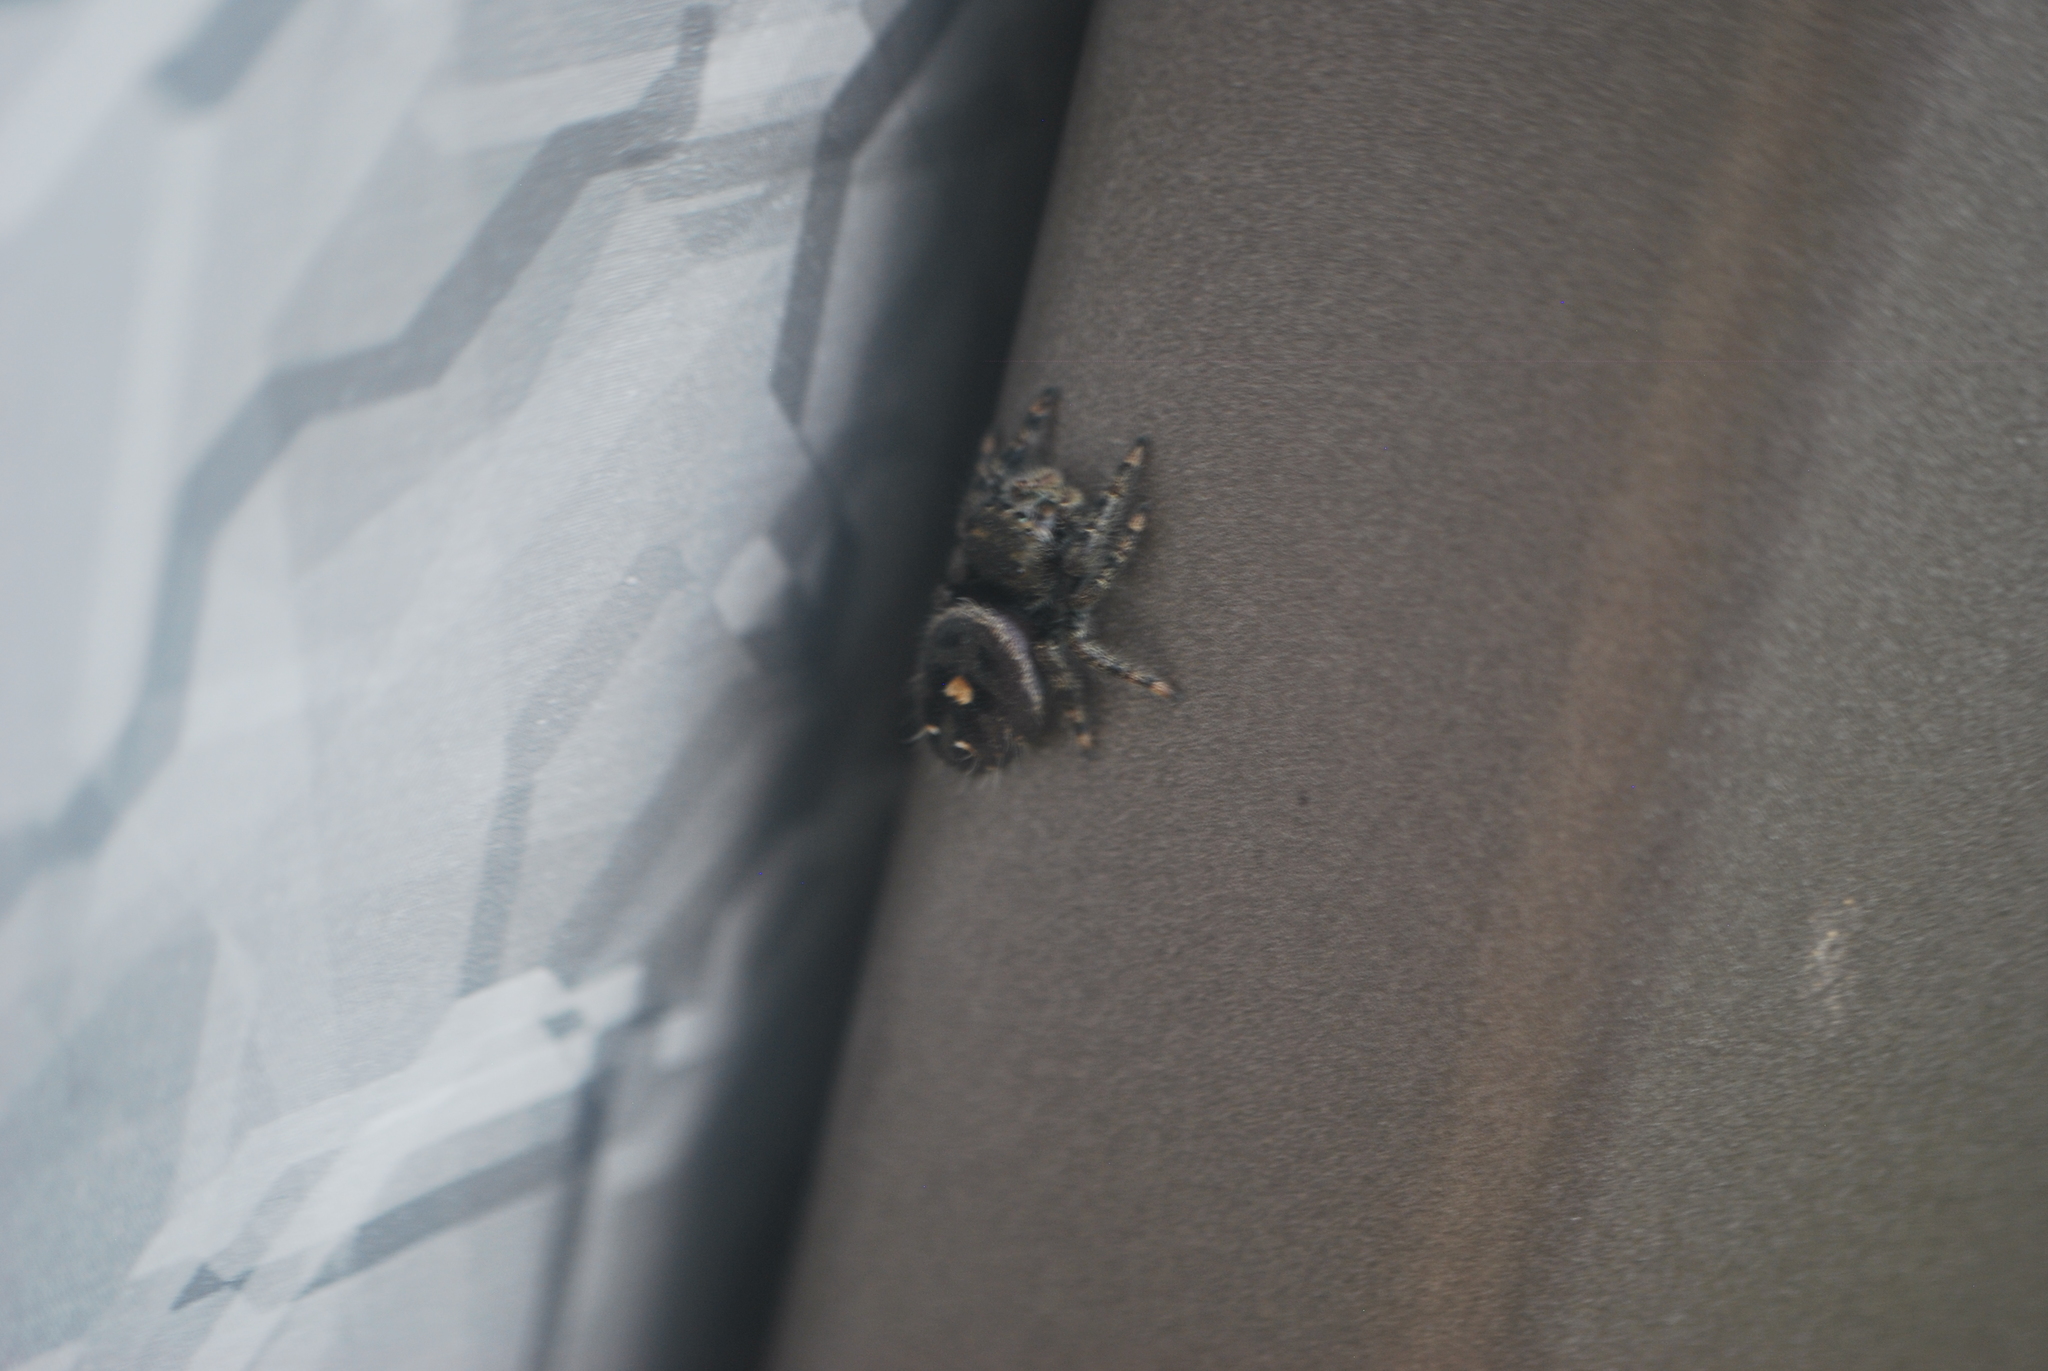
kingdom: Animalia
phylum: Arthropoda
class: Arachnida
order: Araneae
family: Salticidae
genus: Phidippus
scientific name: Phidippus audax
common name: Bold jumper
